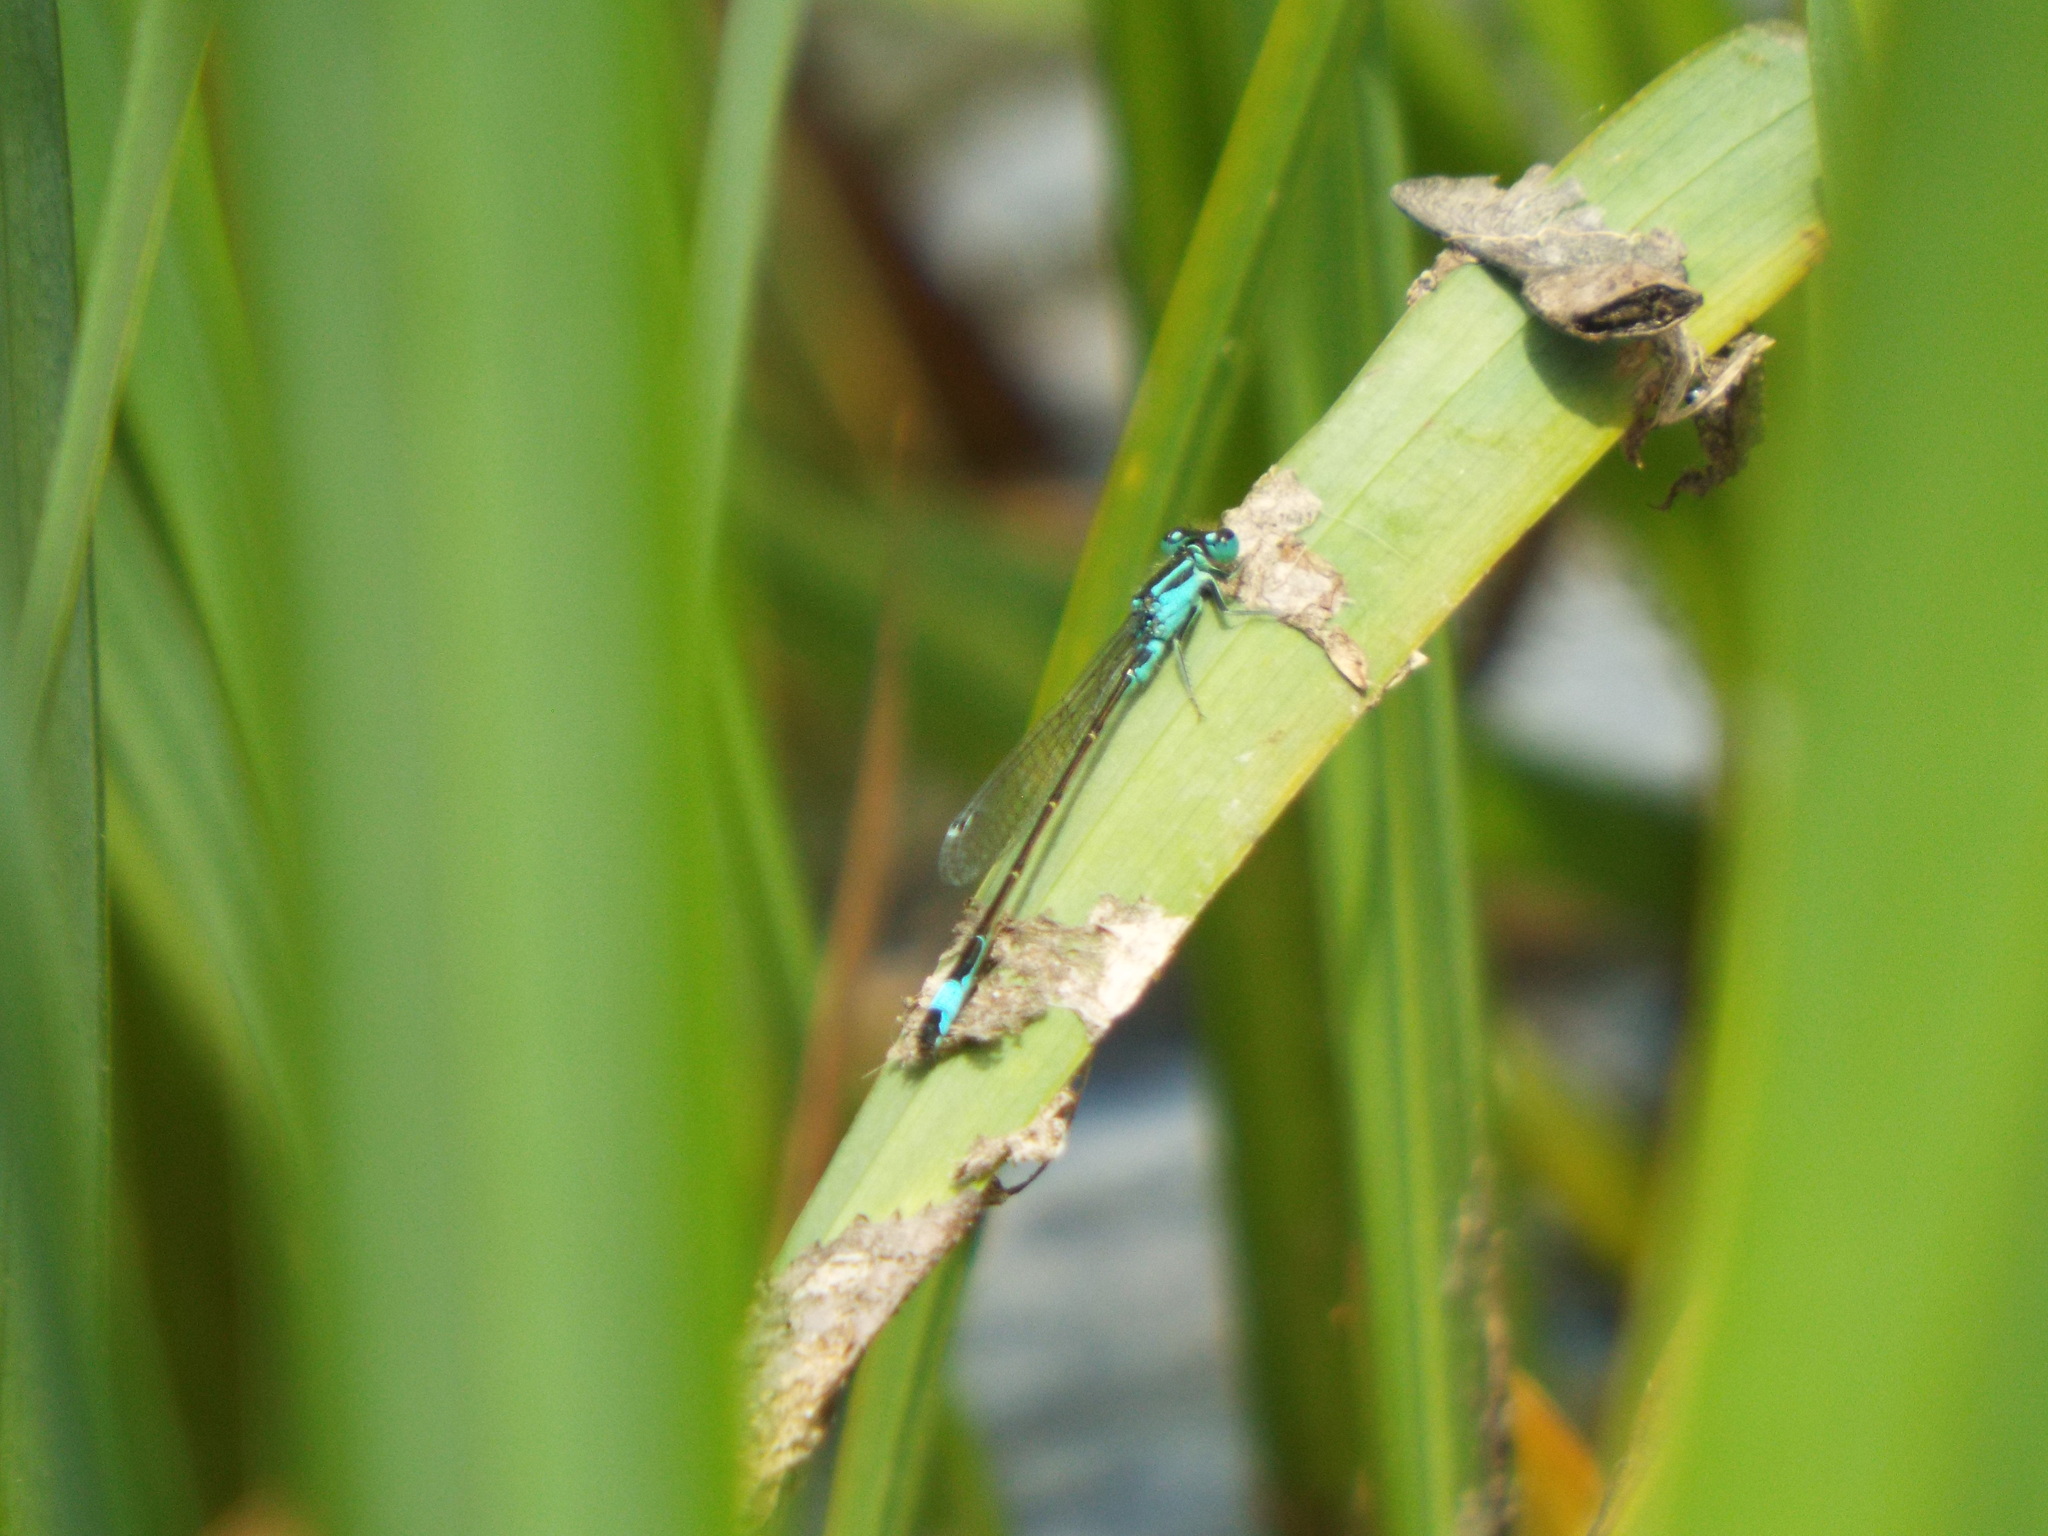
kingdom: Animalia
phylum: Arthropoda
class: Insecta
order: Odonata
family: Coenagrionidae
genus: Ischnura
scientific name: Ischnura elegans
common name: Blue-tailed damselfly
